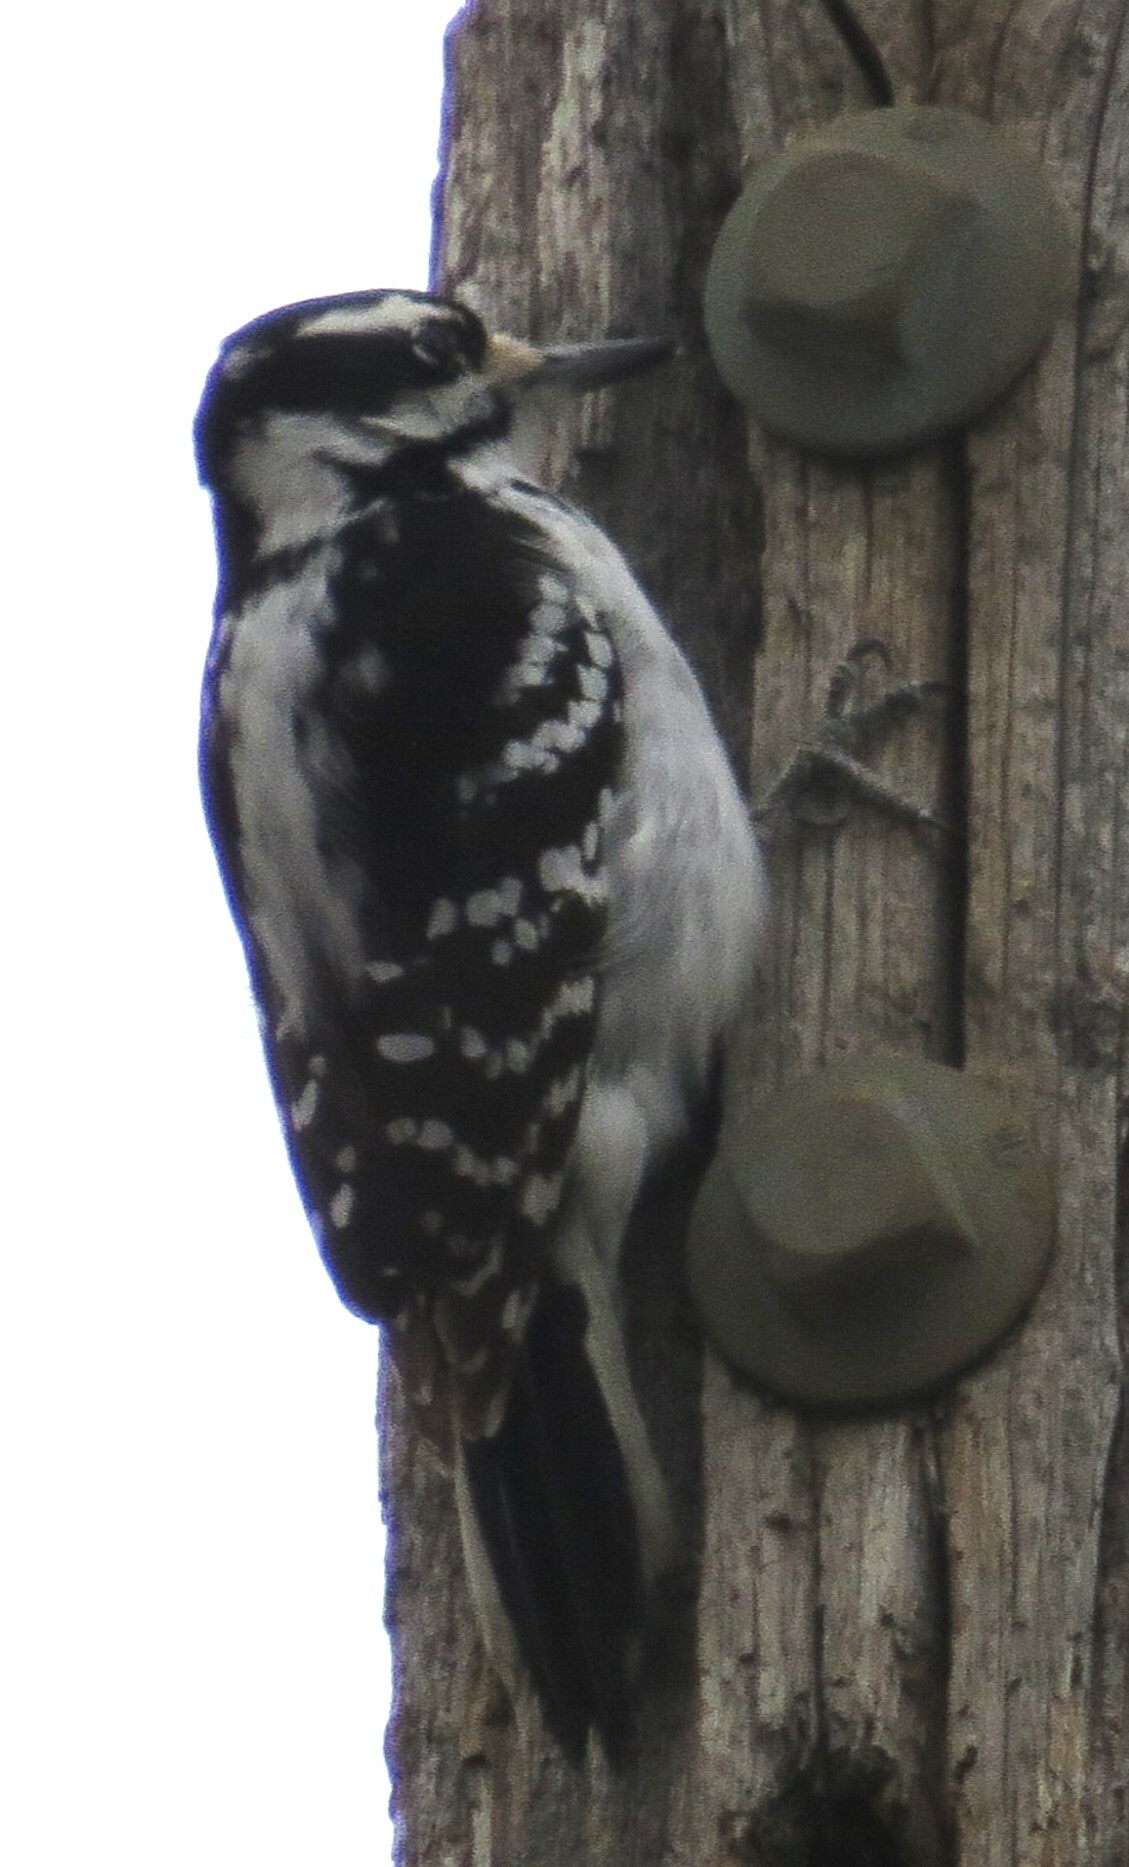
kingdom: Animalia
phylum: Chordata
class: Aves
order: Piciformes
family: Picidae
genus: Leuconotopicus
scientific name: Leuconotopicus villosus
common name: Hairy woodpecker
